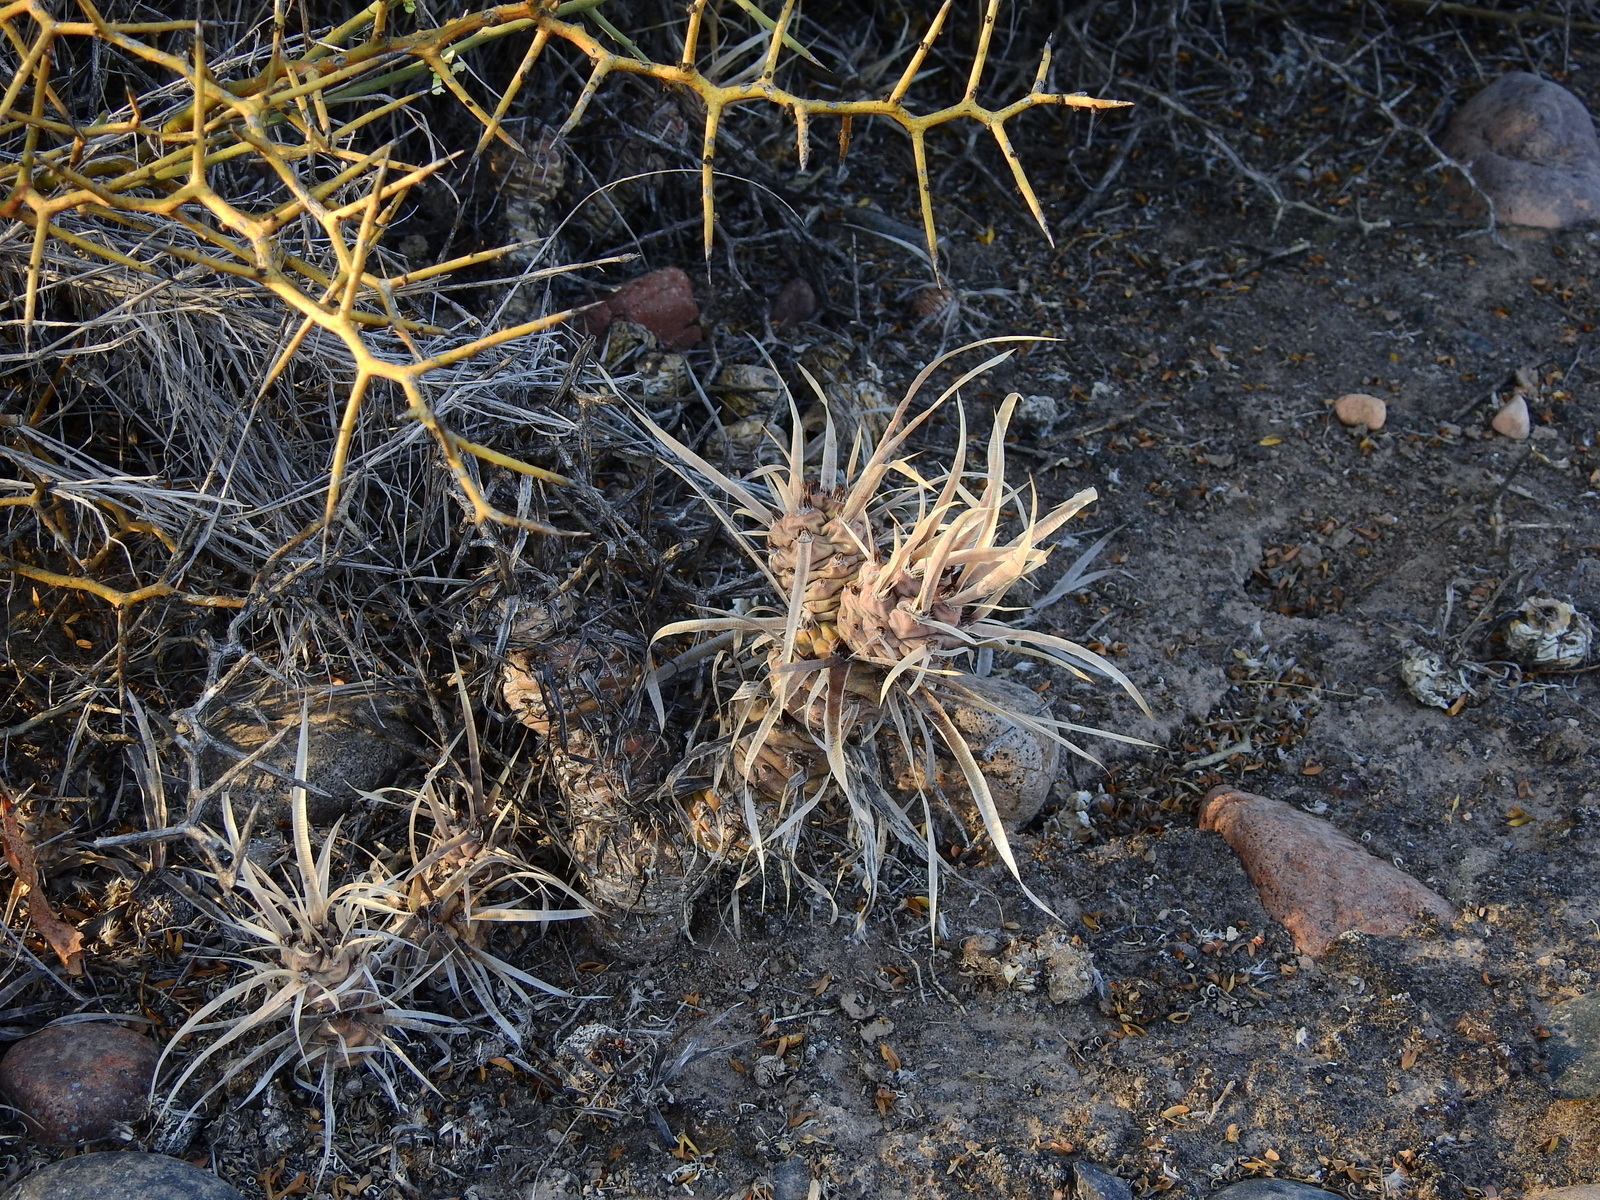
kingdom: Plantae
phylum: Tracheophyta
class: Magnoliopsida
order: Caryophyllales
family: Cactaceae
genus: Tephrocactus
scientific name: Tephrocactus articulatus
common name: Paper cactus
